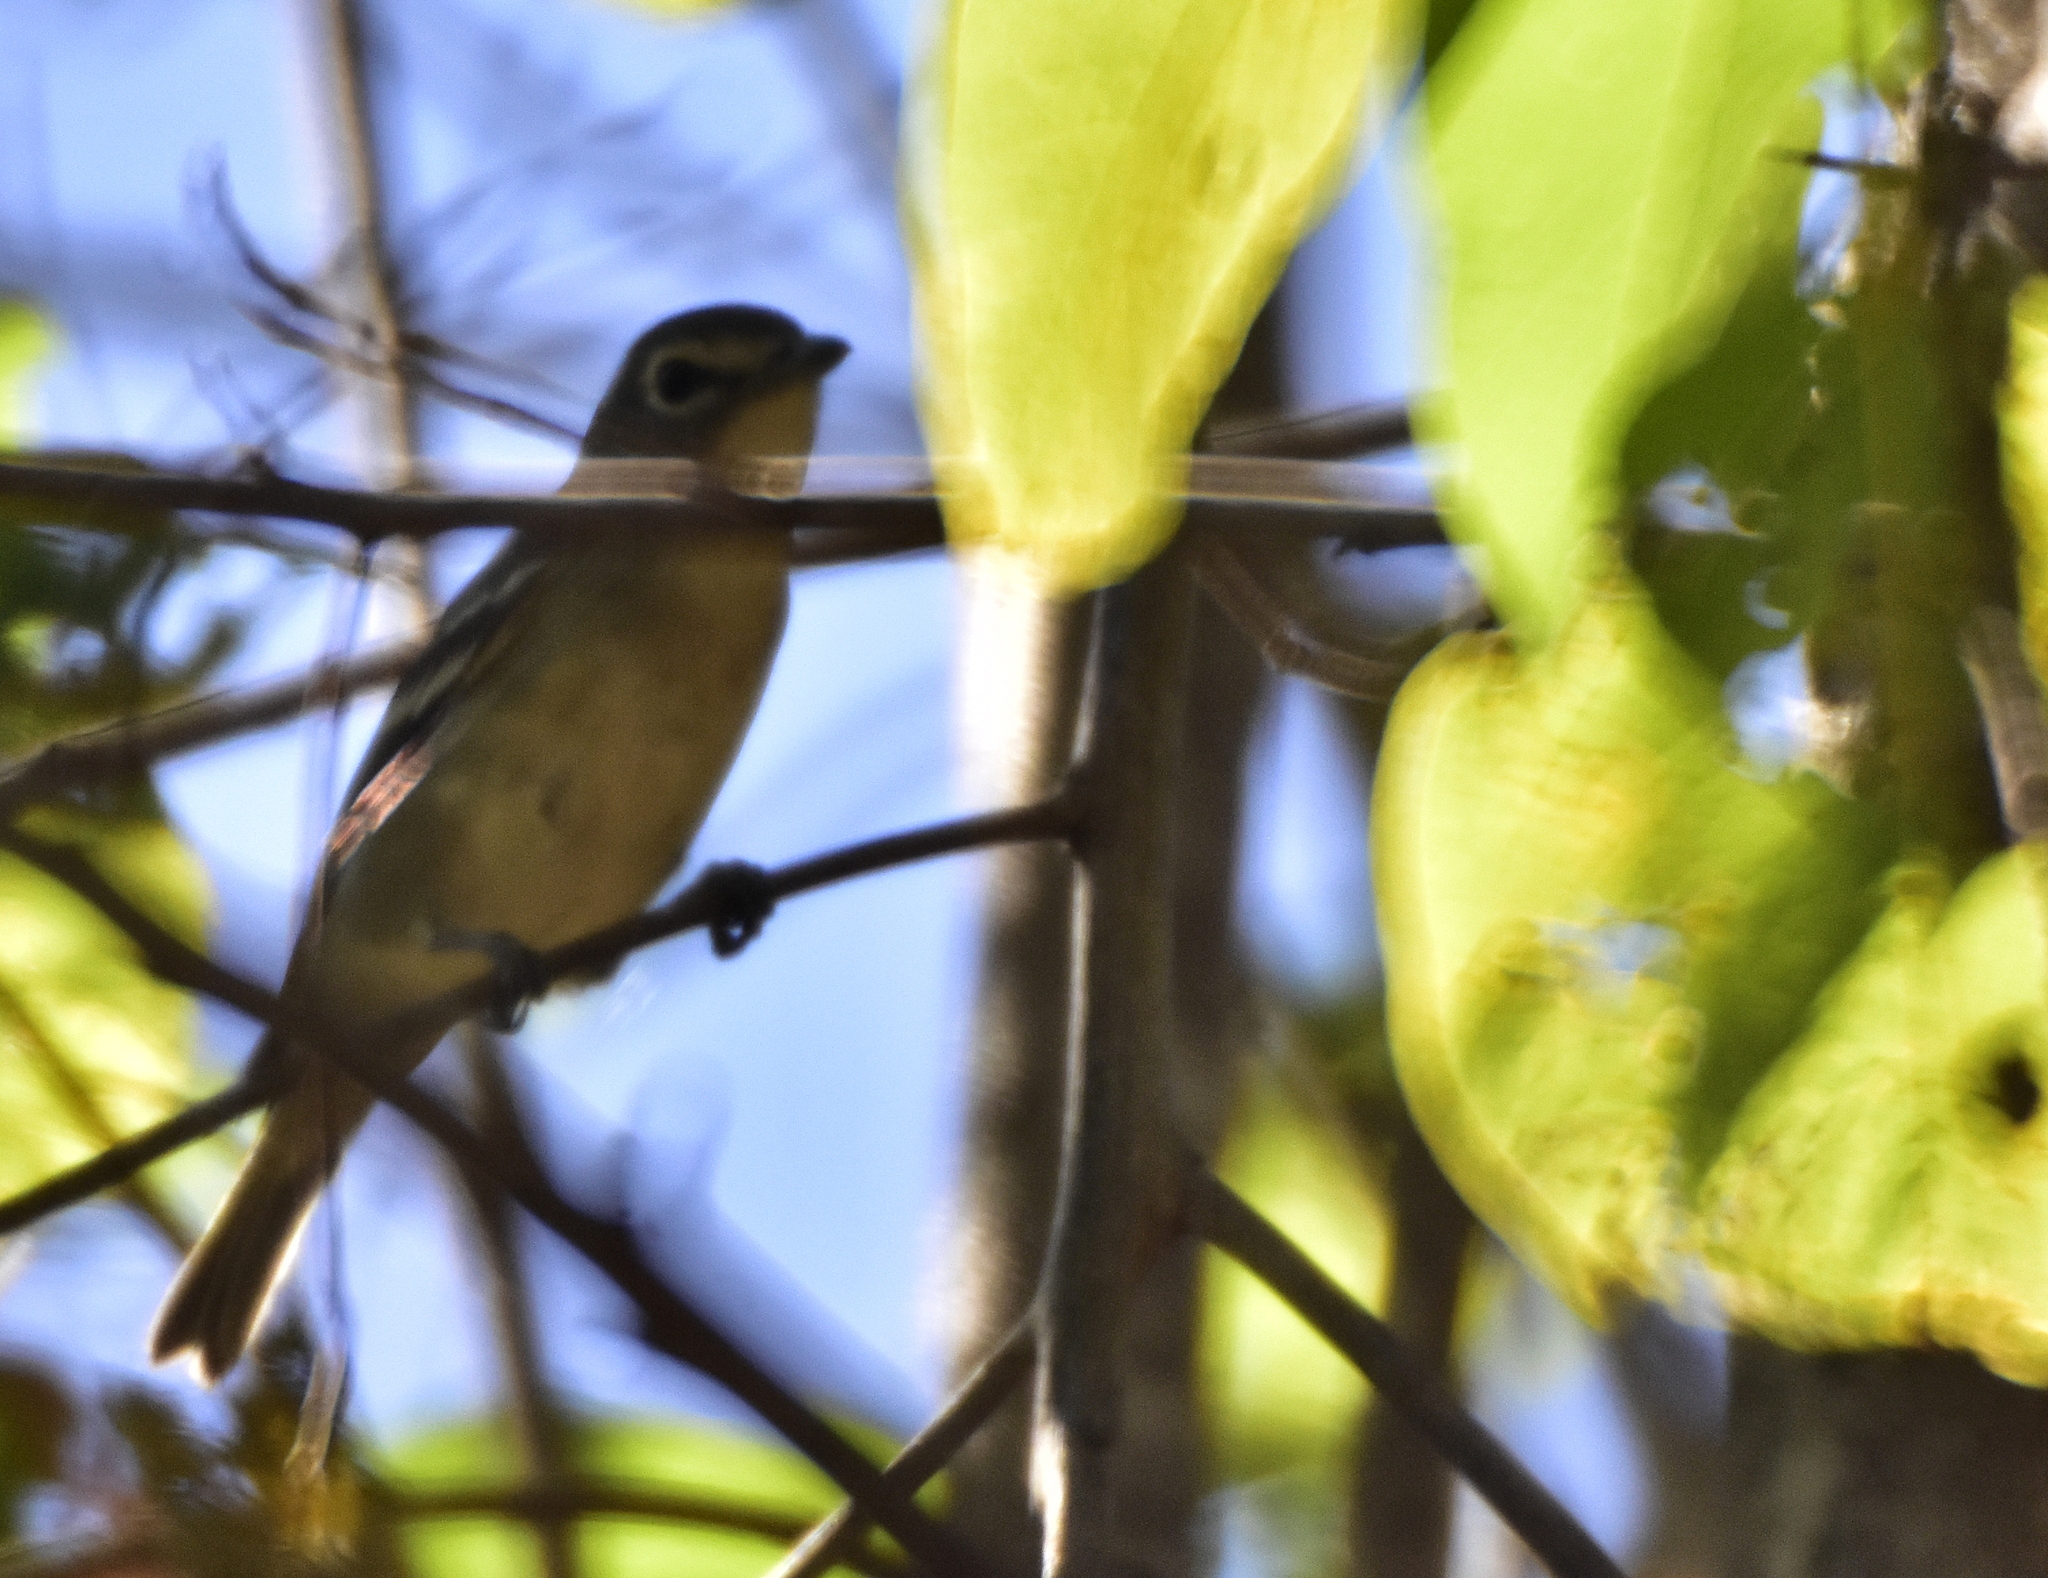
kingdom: Animalia
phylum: Chordata
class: Aves
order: Passeriformes
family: Vireonidae
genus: Vireo
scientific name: Vireo solitarius
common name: Blue-headed vireo
